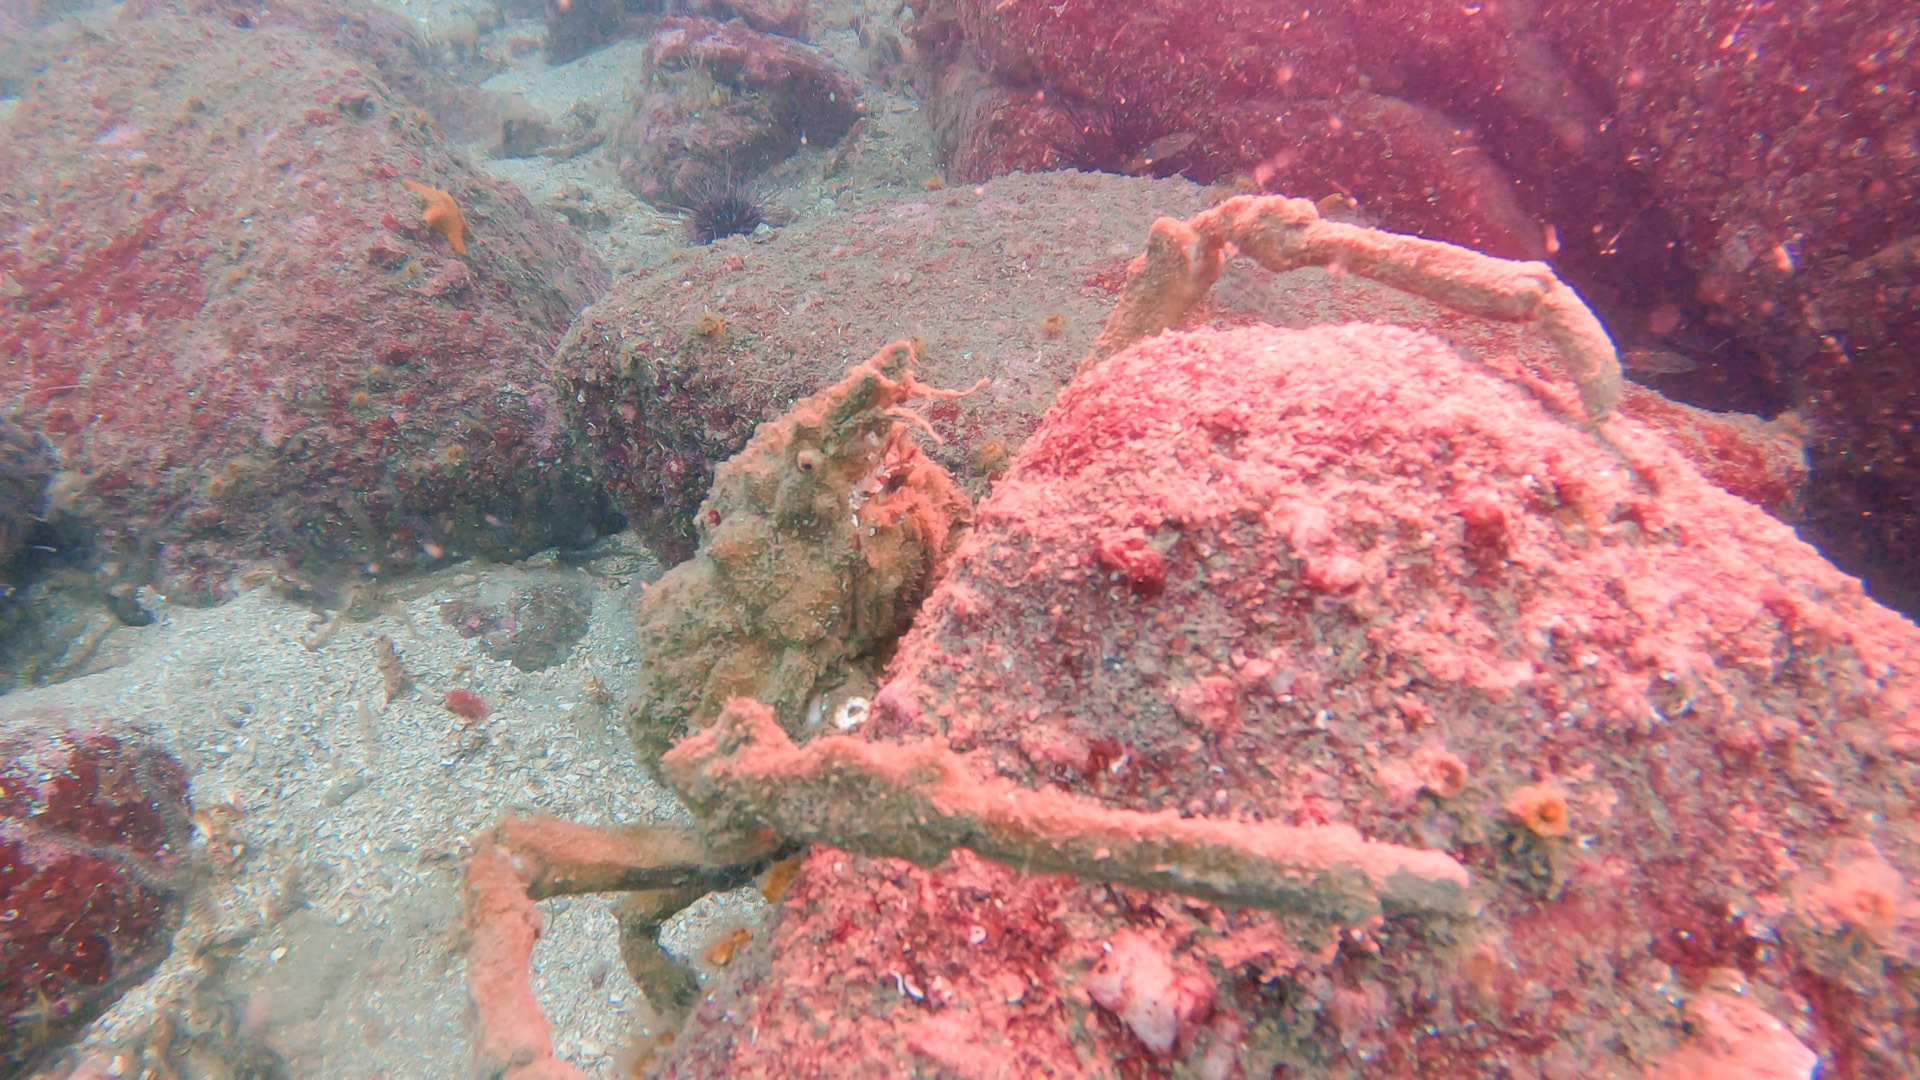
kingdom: Animalia
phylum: Arthropoda
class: Malacostraca
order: Decapoda
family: Epialtidae
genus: Loxorhynchus
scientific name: Loxorhynchus crispatus
